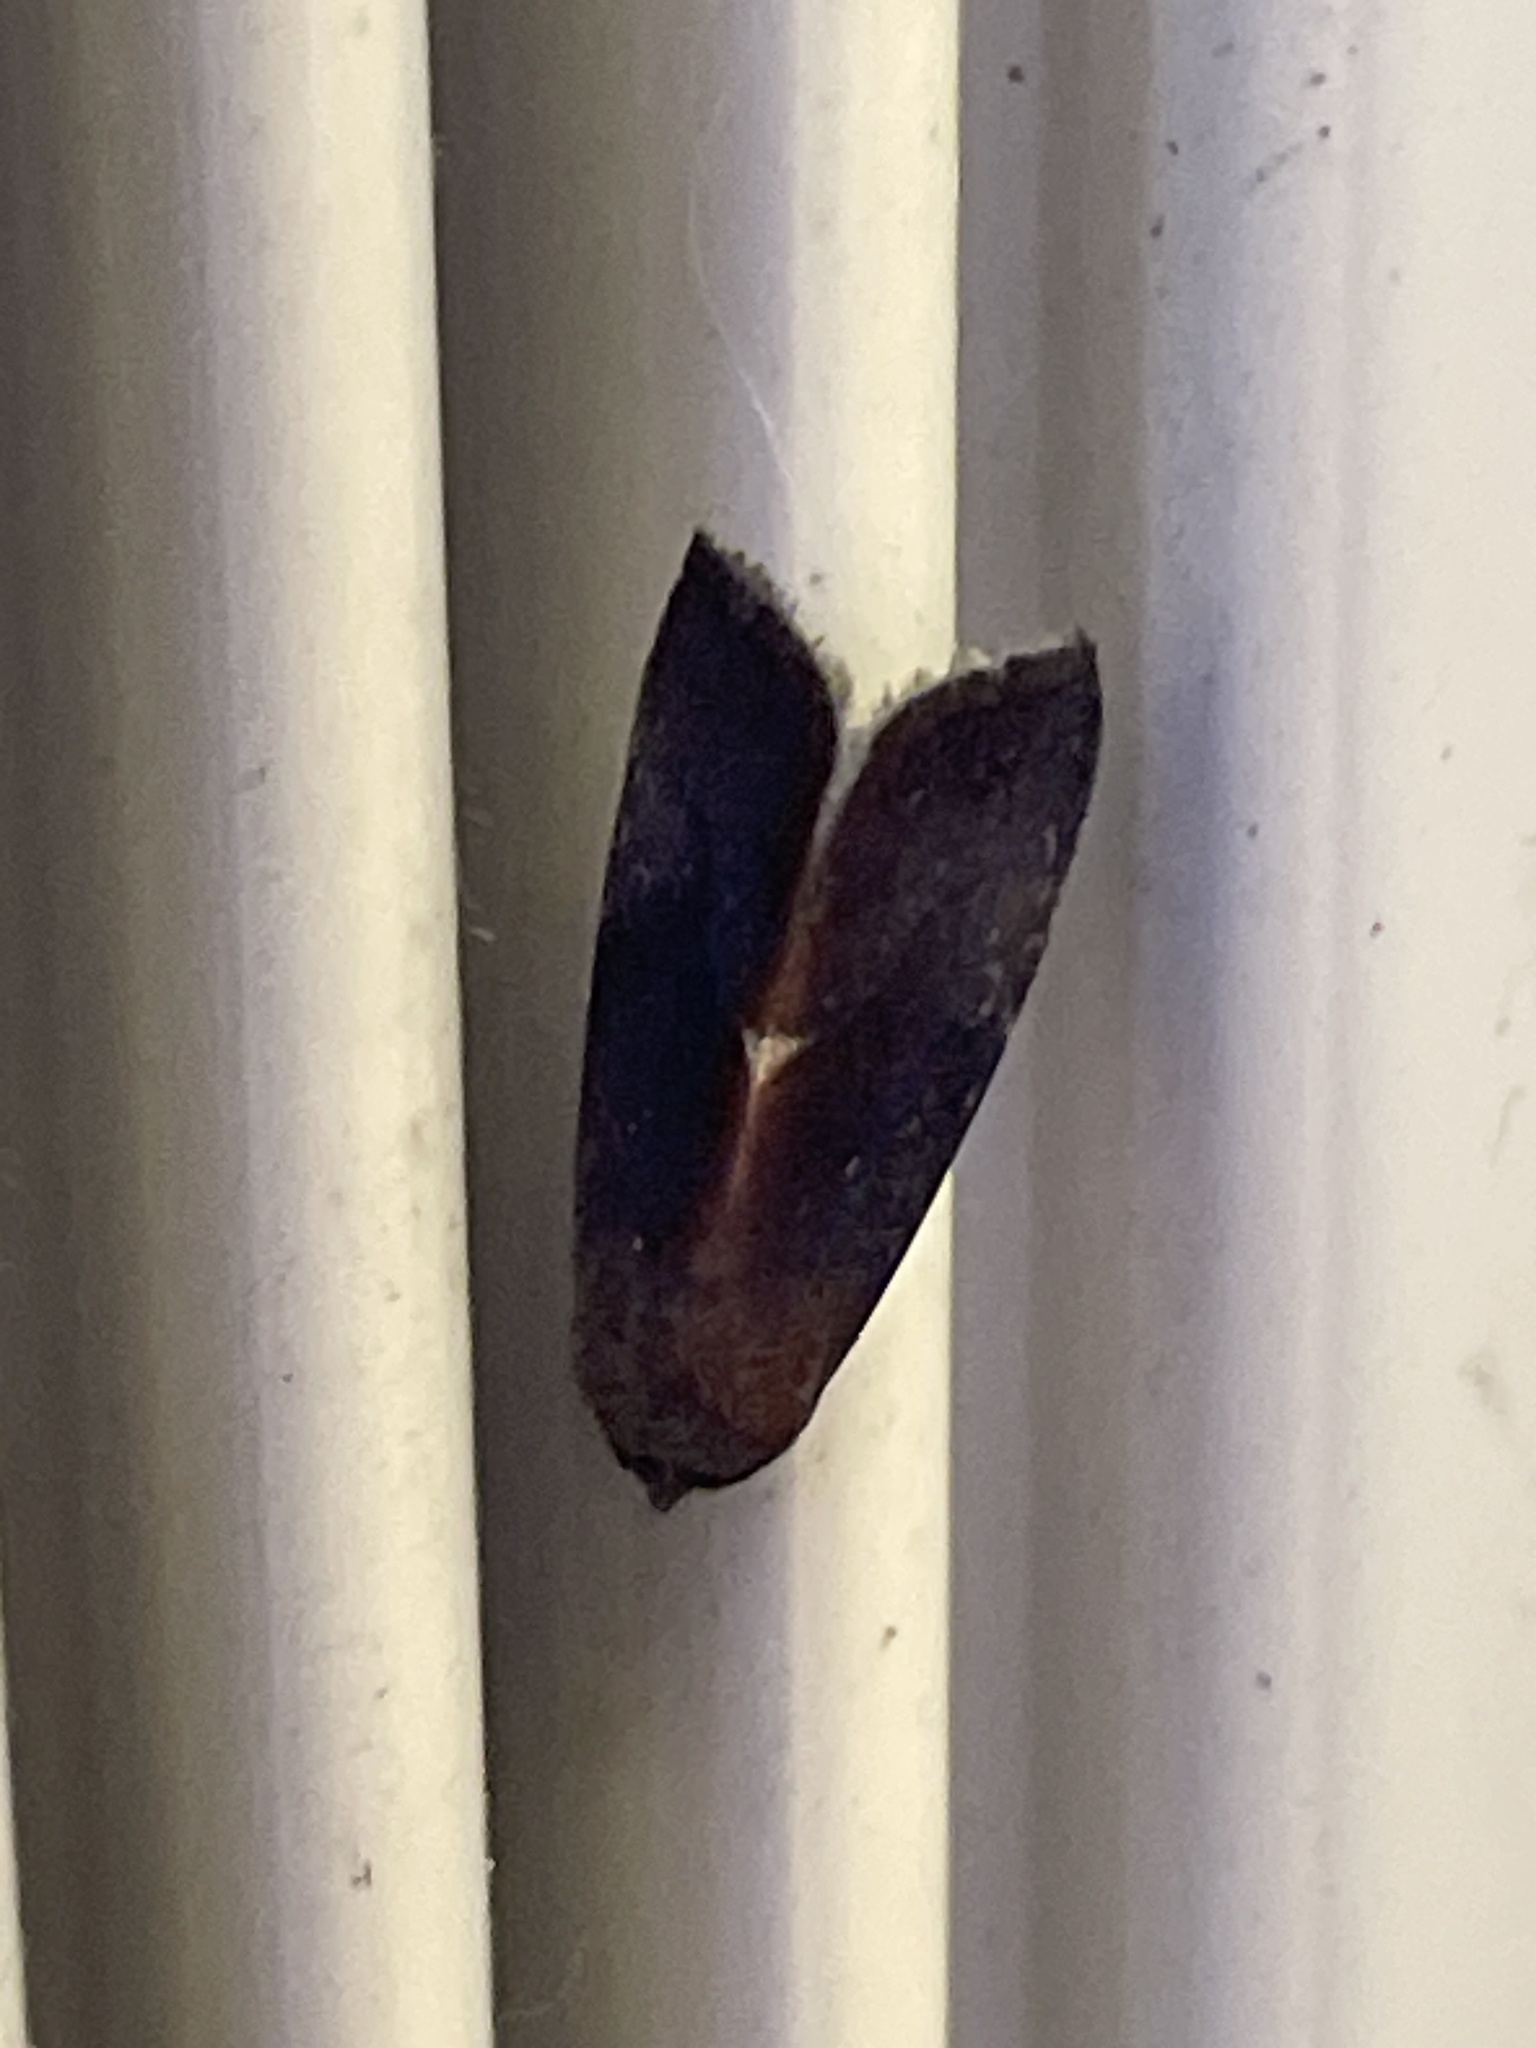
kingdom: Animalia
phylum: Arthropoda
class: Insecta
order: Lepidoptera
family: Noctuidae
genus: Galgula
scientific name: Galgula partita
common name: Wedgeling
